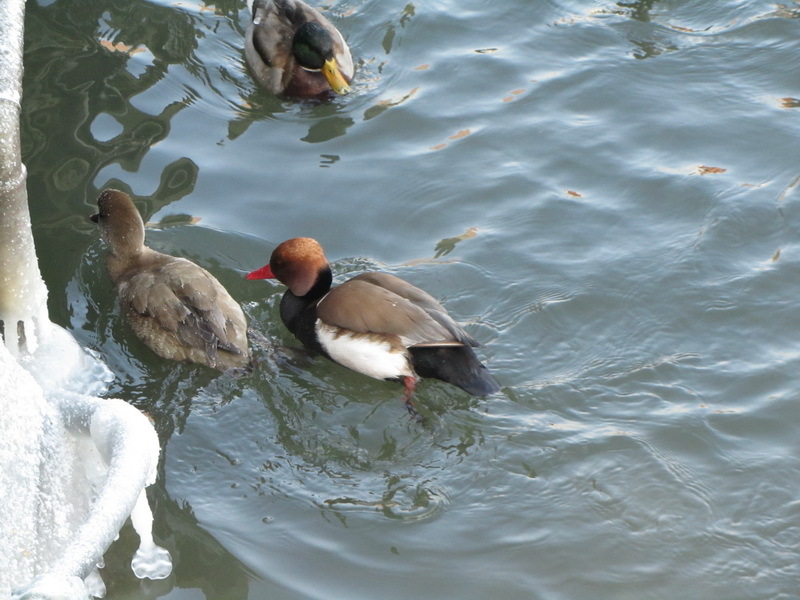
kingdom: Animalia
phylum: Chordata
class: Aves
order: Anseriformes
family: Anatidae
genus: Netta
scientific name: Netta rufina
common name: Red-crested pochard
